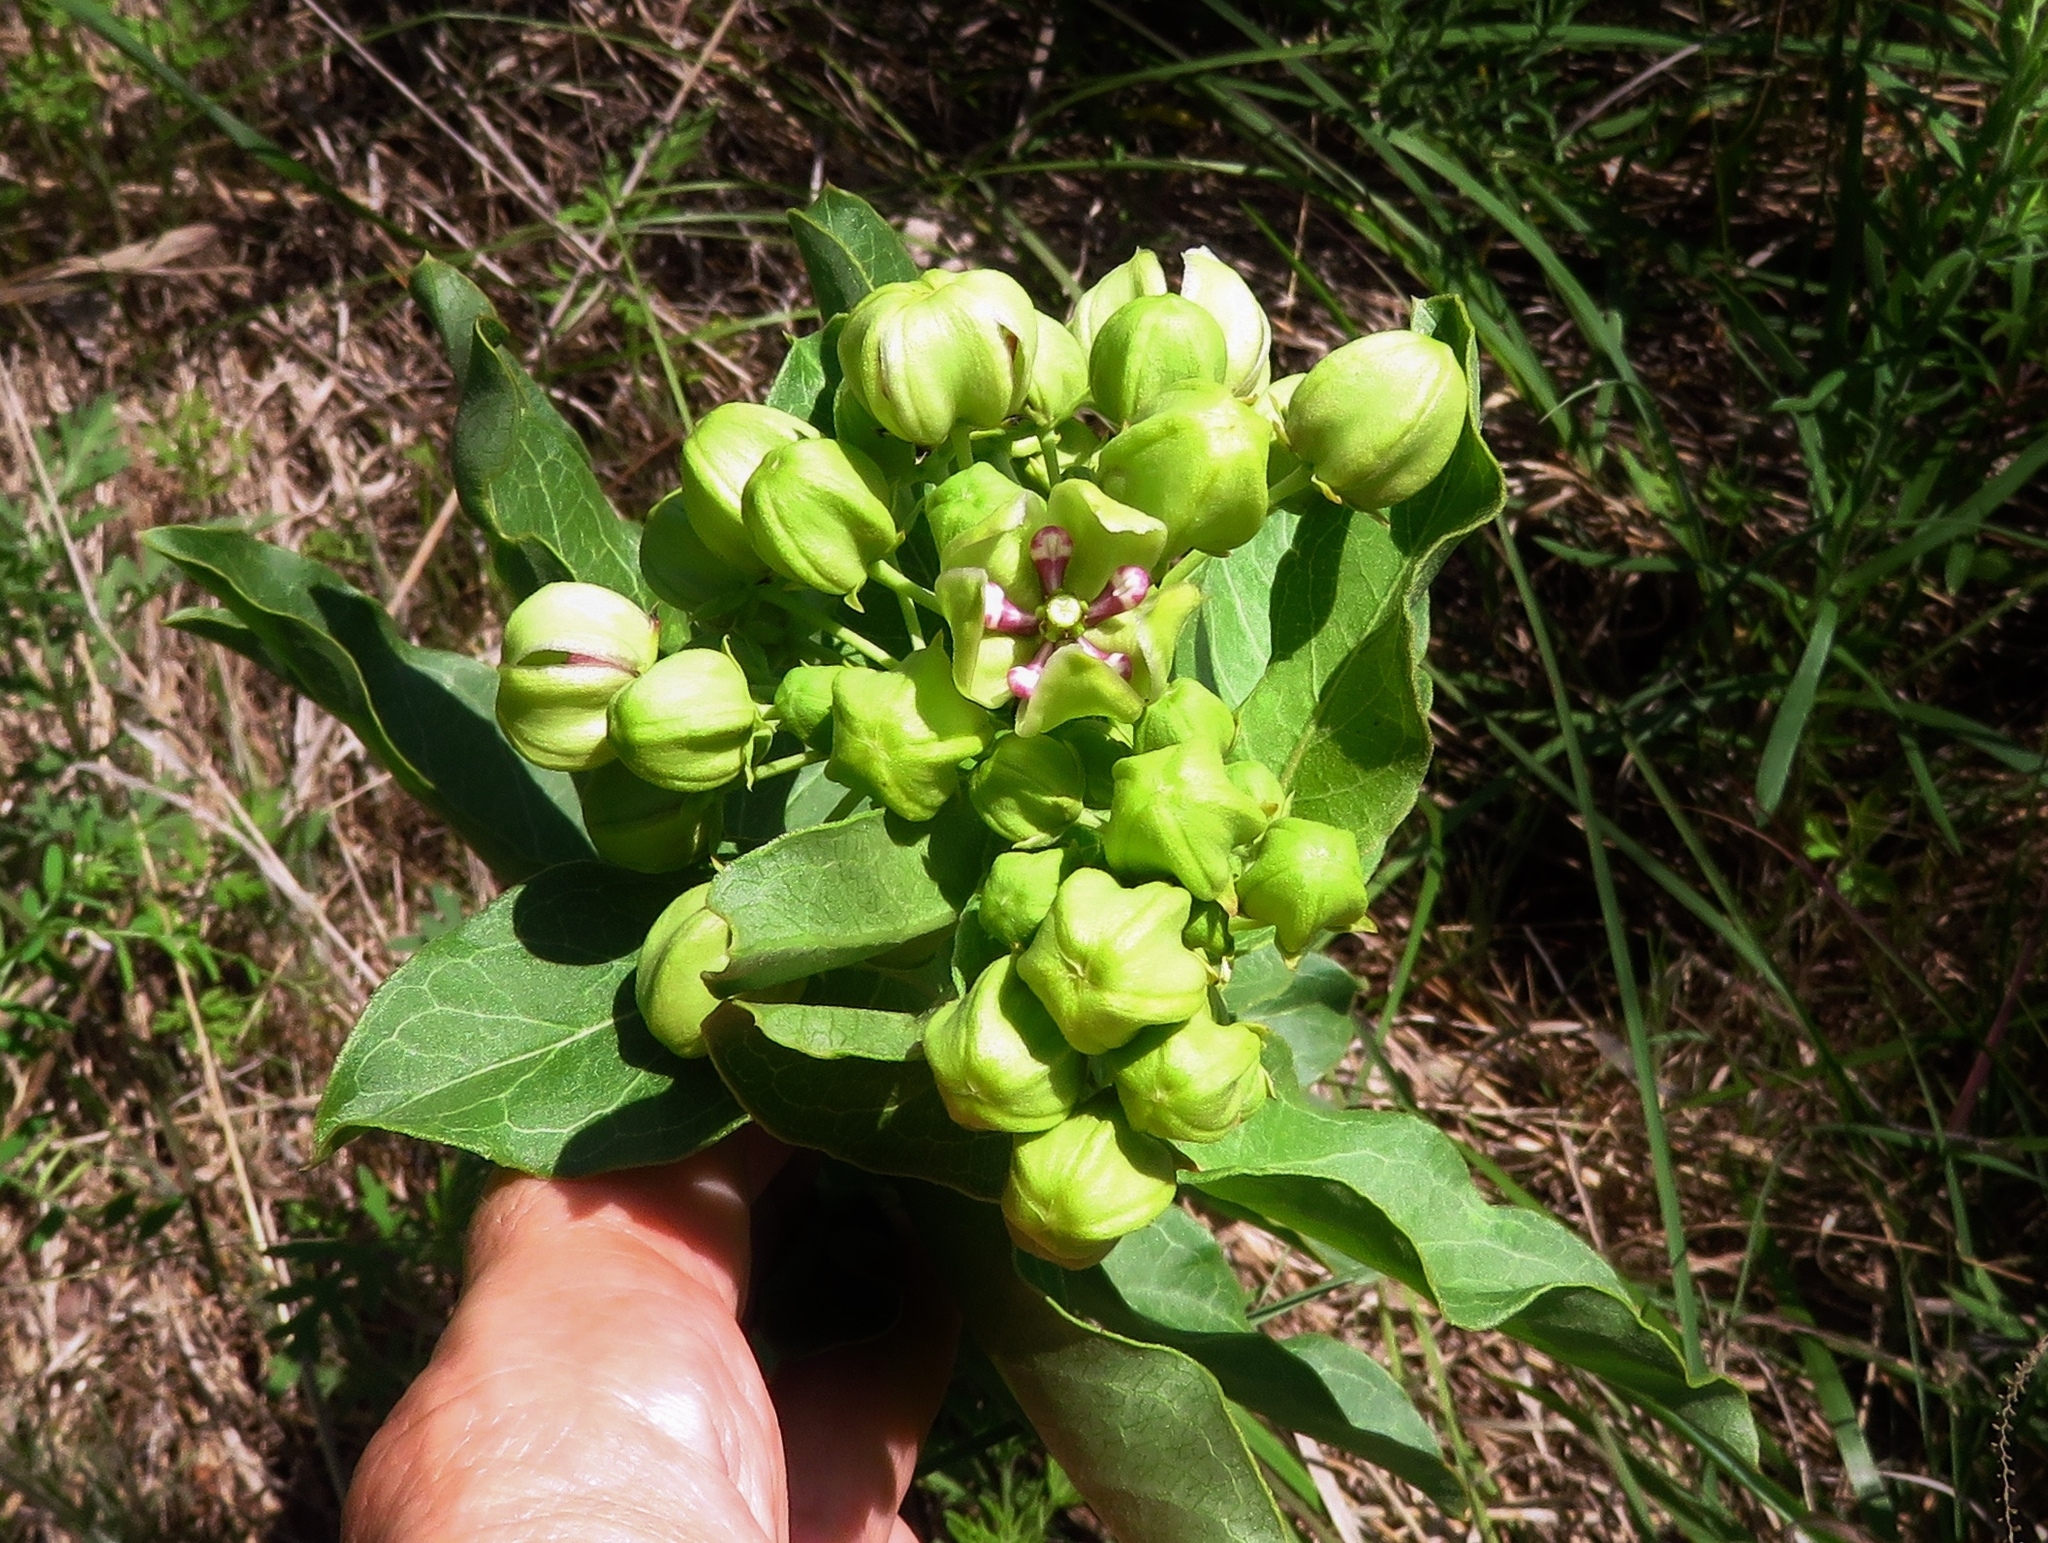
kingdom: Plantae
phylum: Tracheophyta
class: Magnoliopsida
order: Gentianales
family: Apocynaceae
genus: Asclepias
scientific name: Asclepias viridis
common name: Antelope-horns
